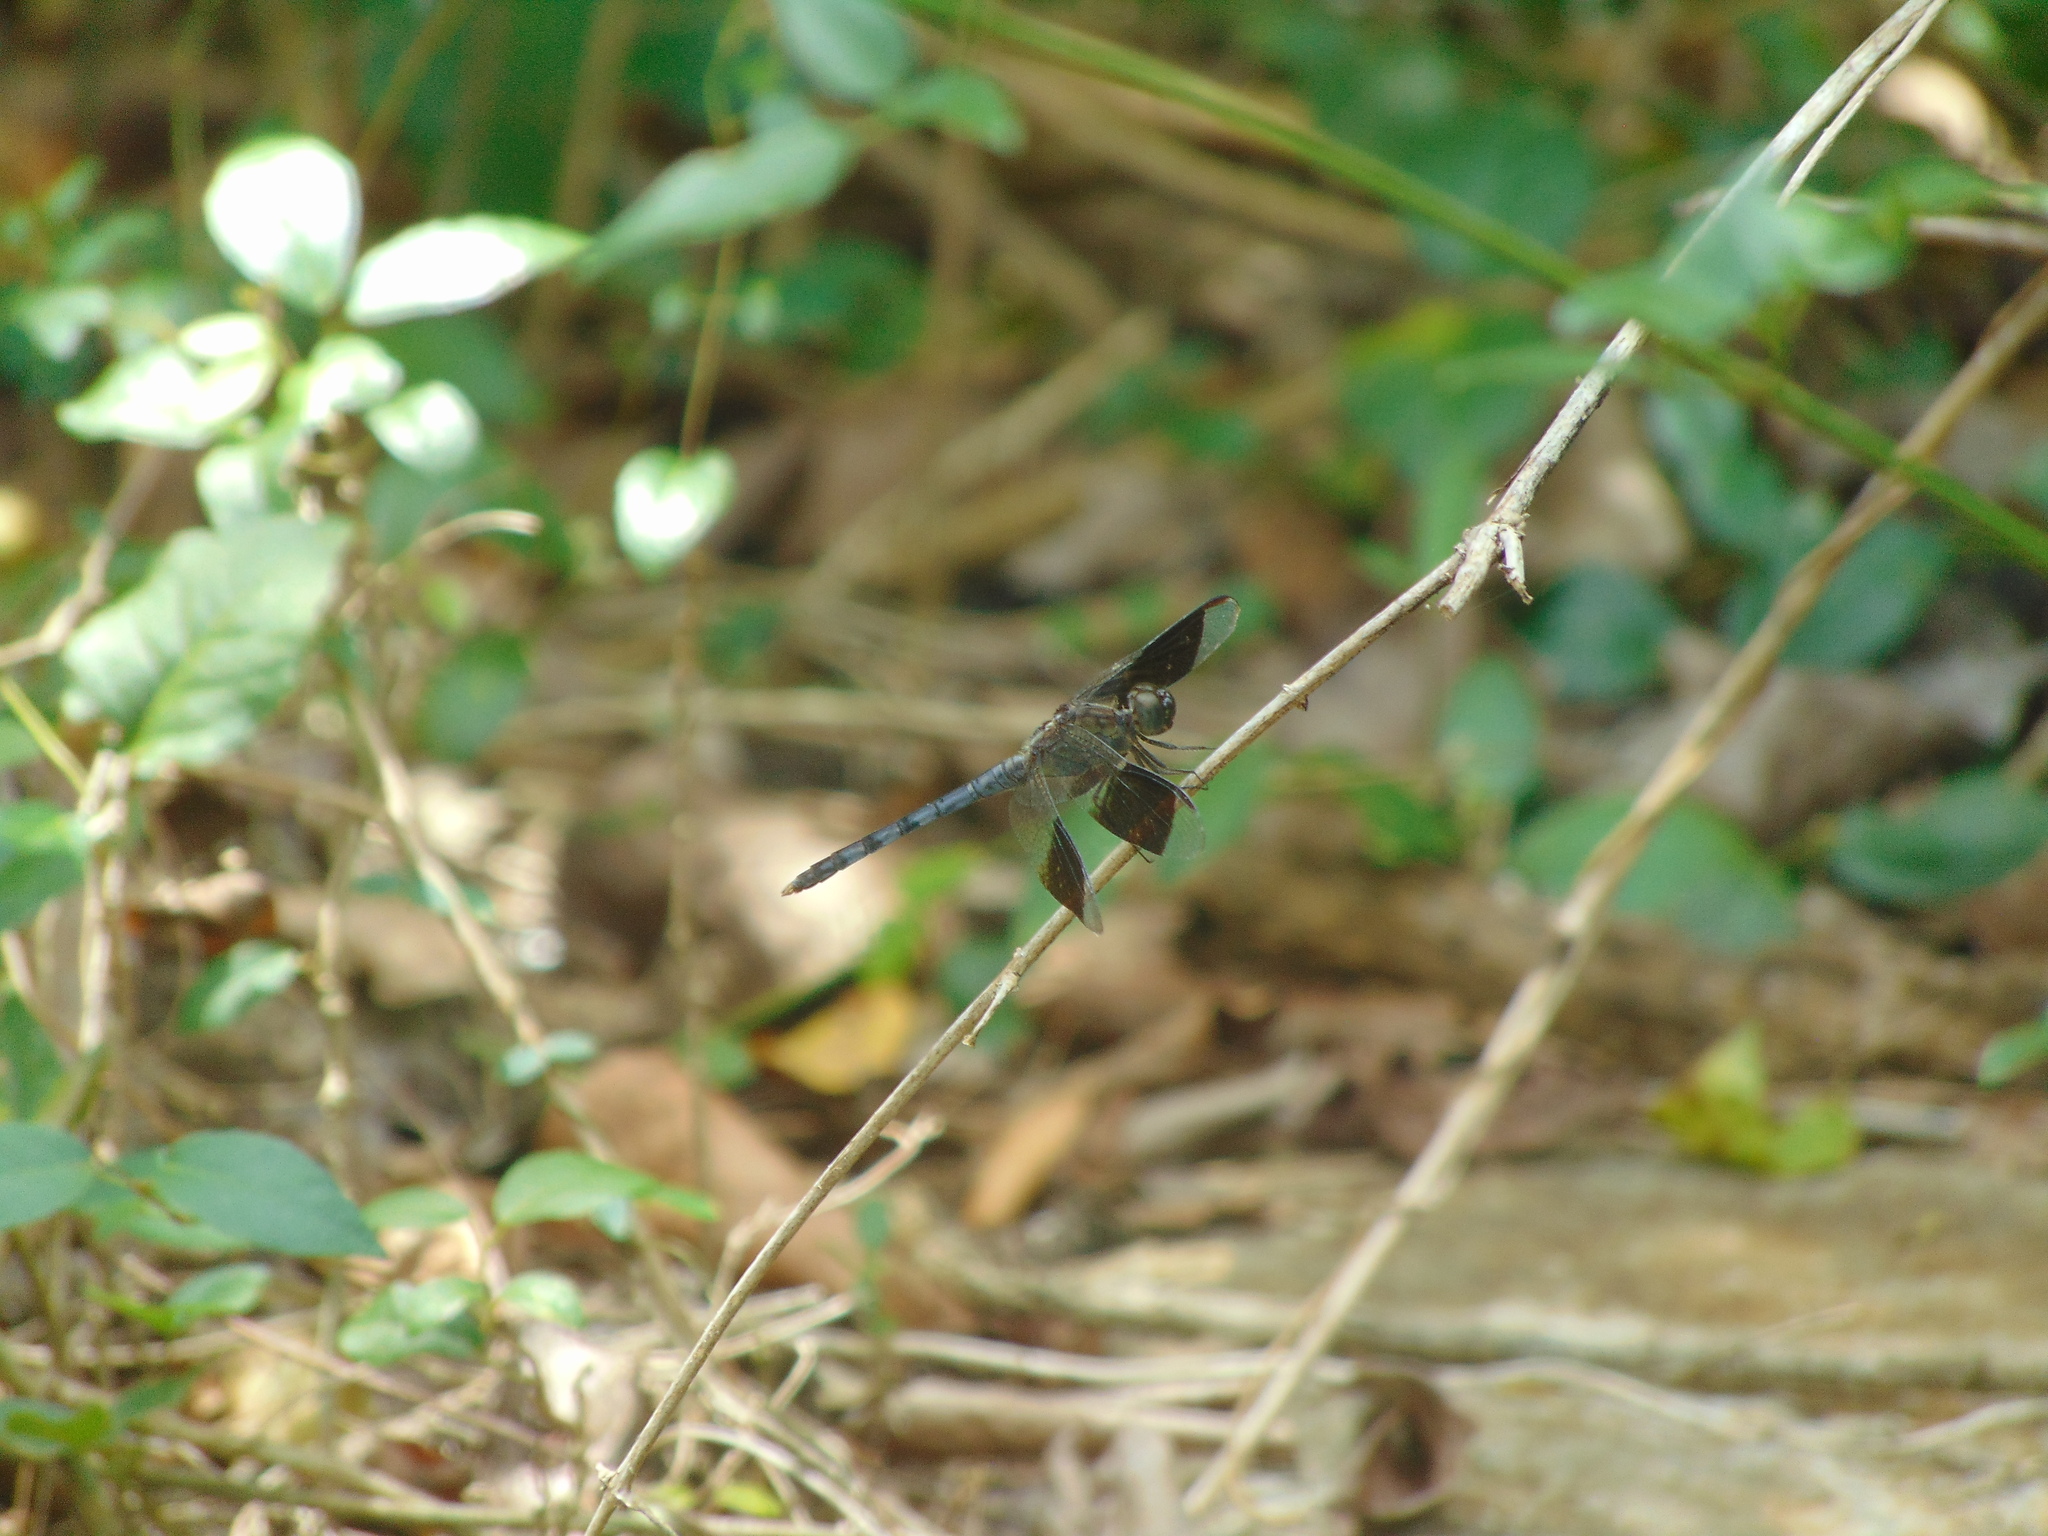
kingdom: Animalia
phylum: Arthropoda
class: Insecta
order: Odonata
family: Libellulidae
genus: Erythrodiplax
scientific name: Erythrodiplax umbrata
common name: Band-winged dragonlet
